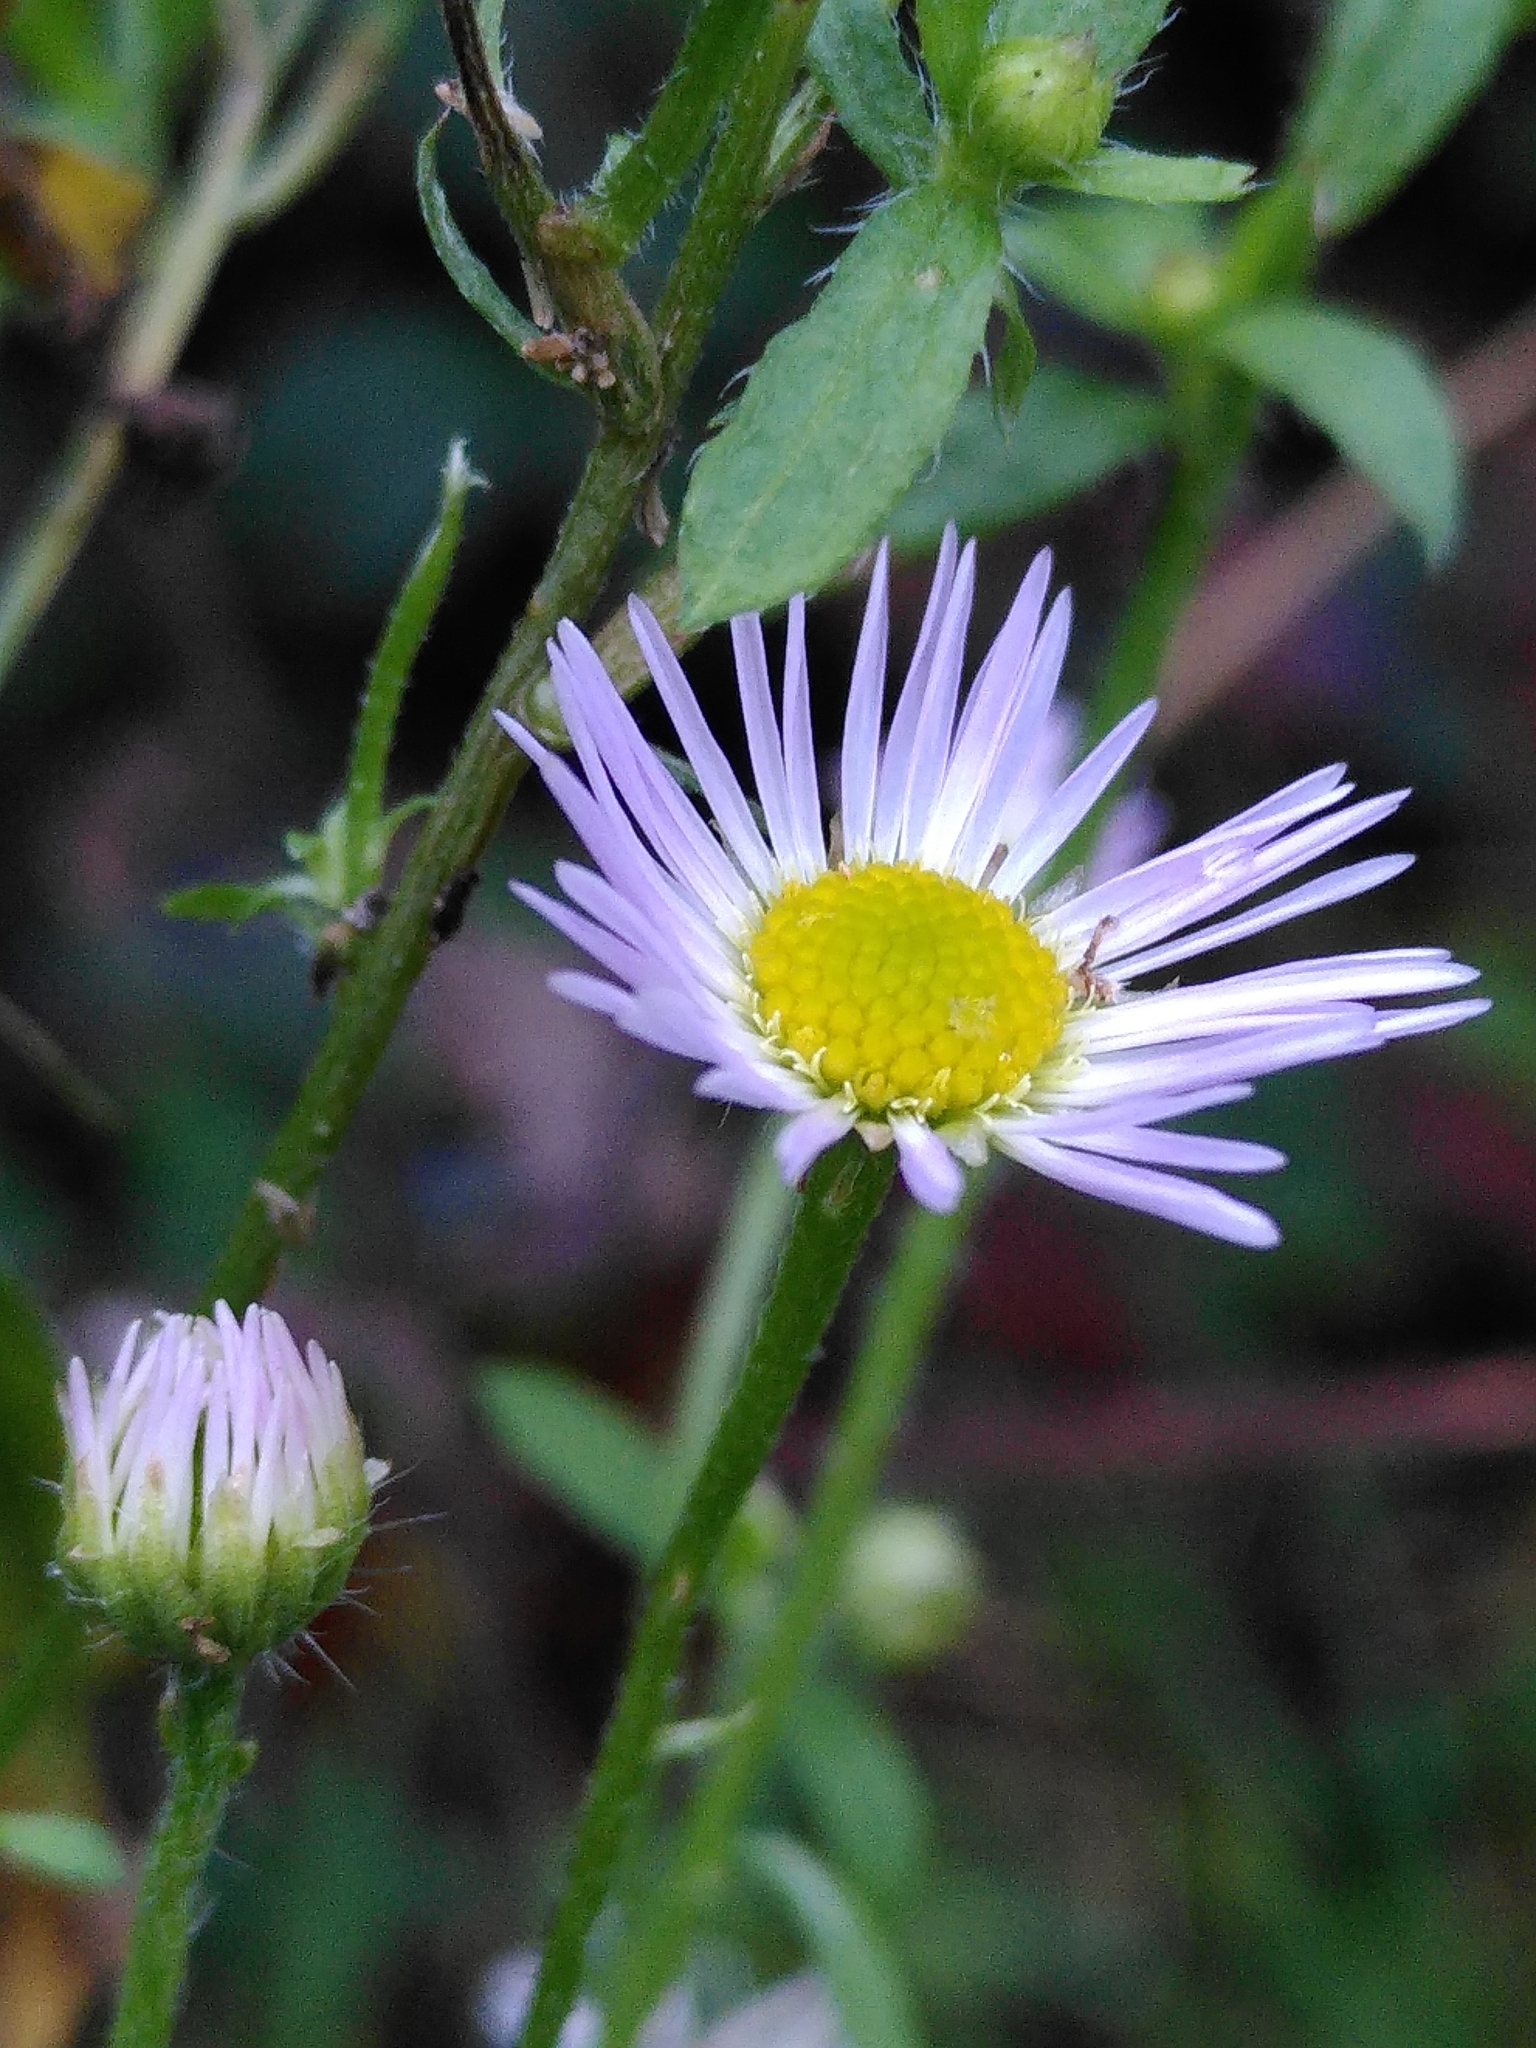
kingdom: Plantae
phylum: Tracheophyta
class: Magnoliopsida
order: Asterales
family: Asteraceae
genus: Erigeron
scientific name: Erigeron annuus
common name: Tall fleabane
